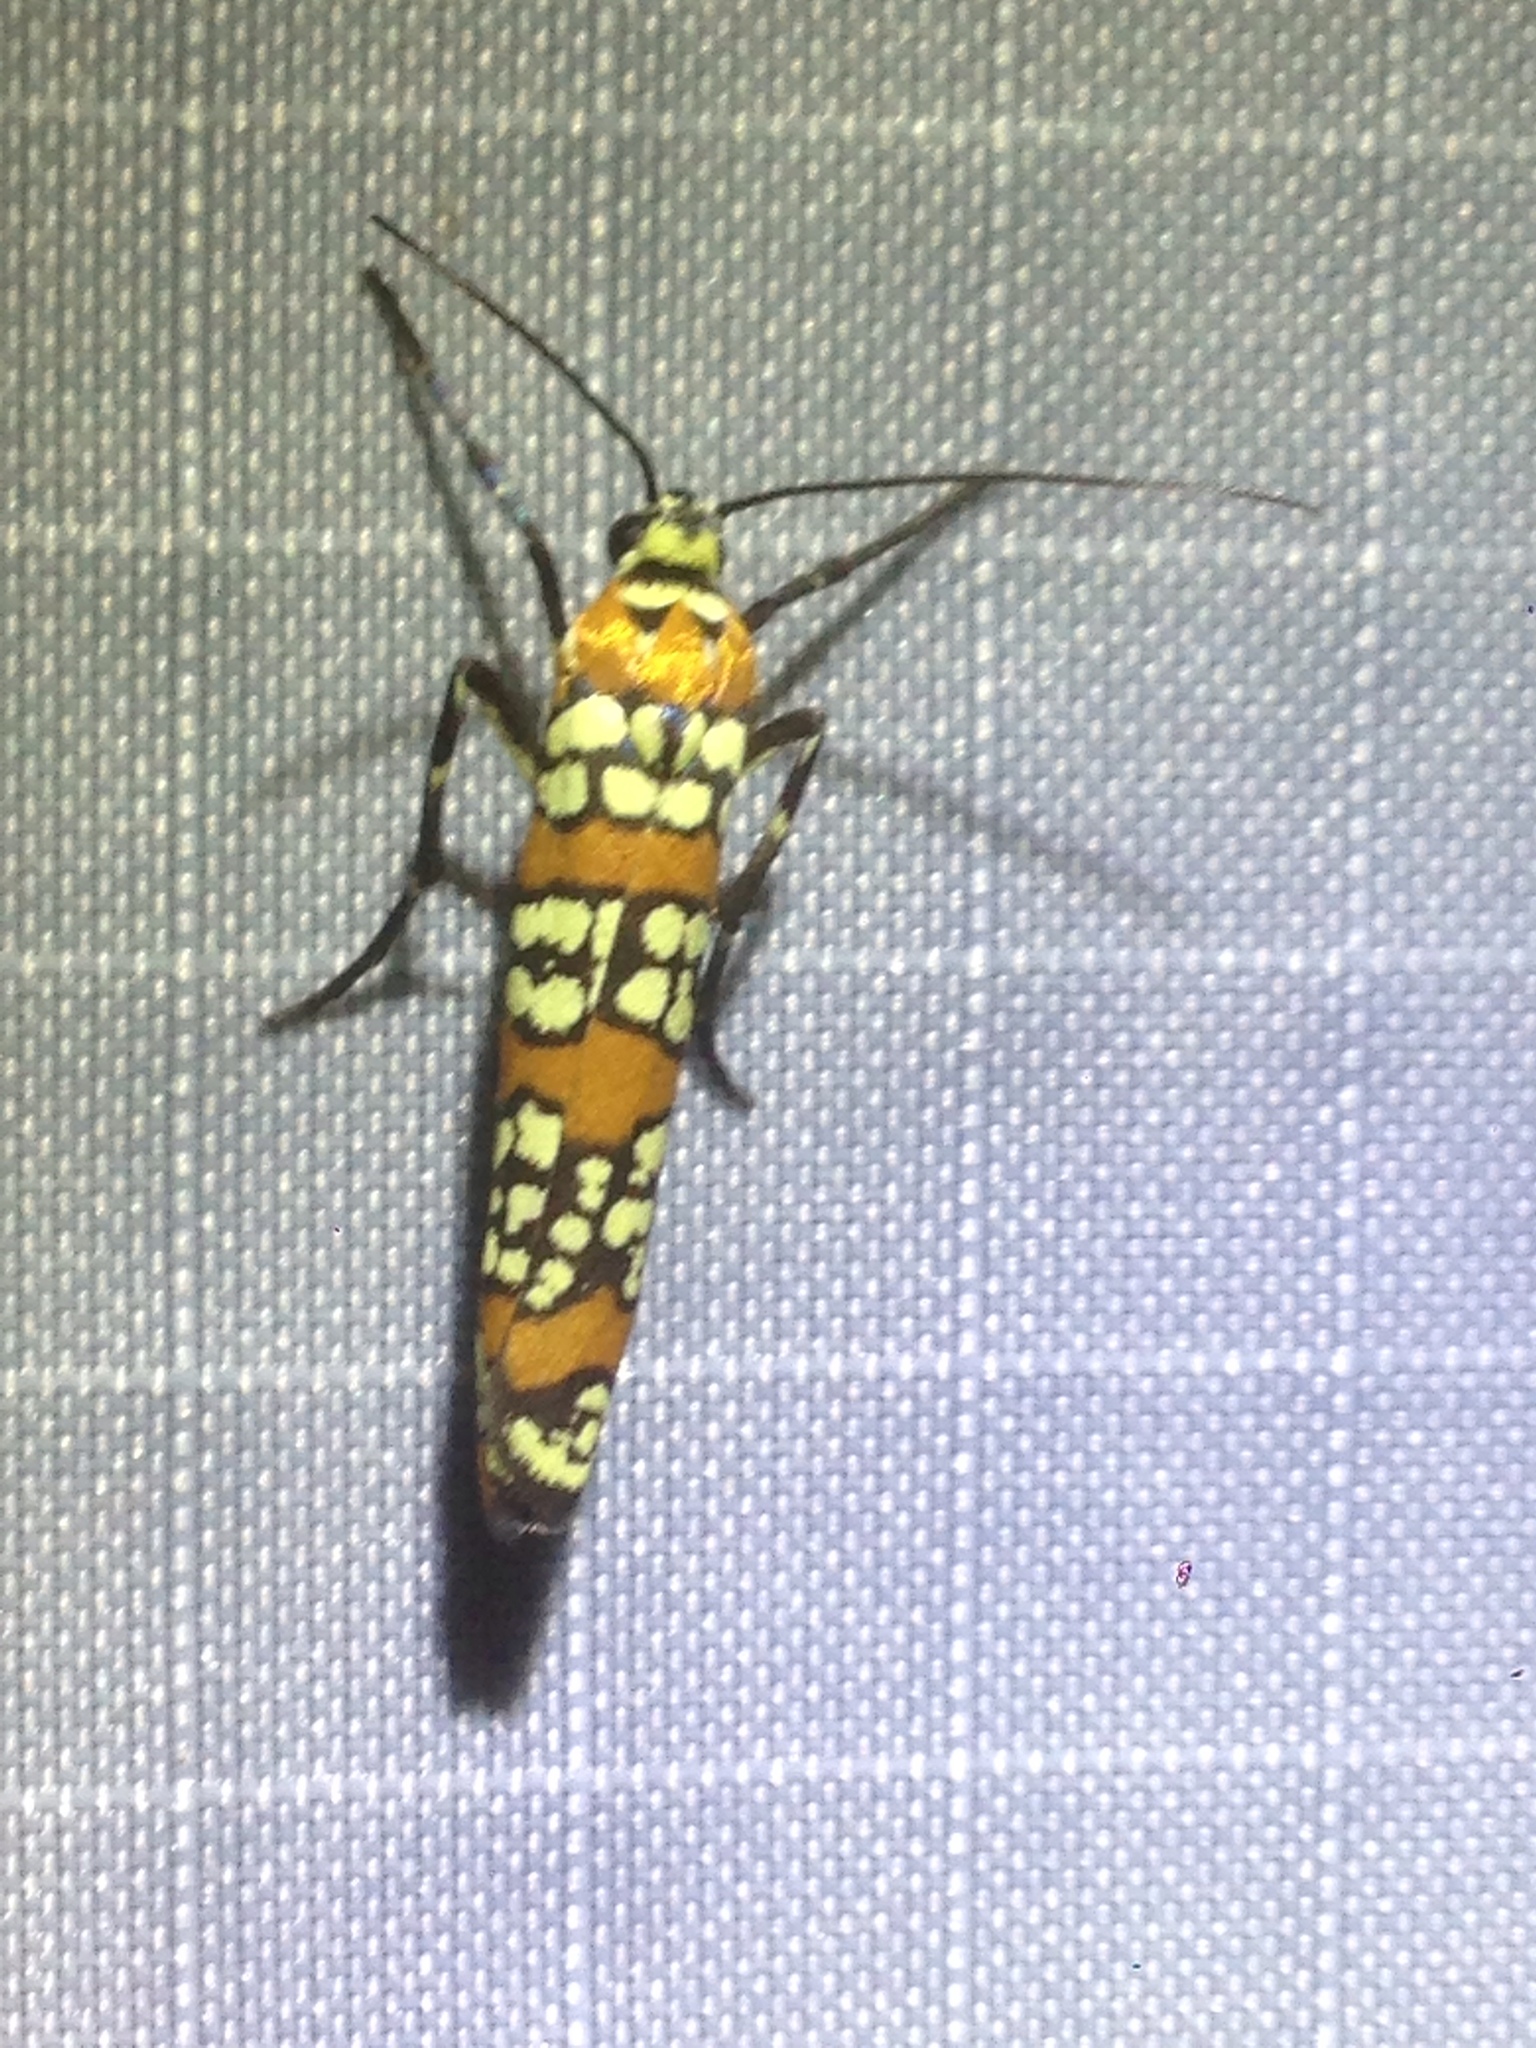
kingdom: Animalia
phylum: Arthropoda
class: Insecta
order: Lepidoptera
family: Attevidae
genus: Atteva
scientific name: Atteva punctella
